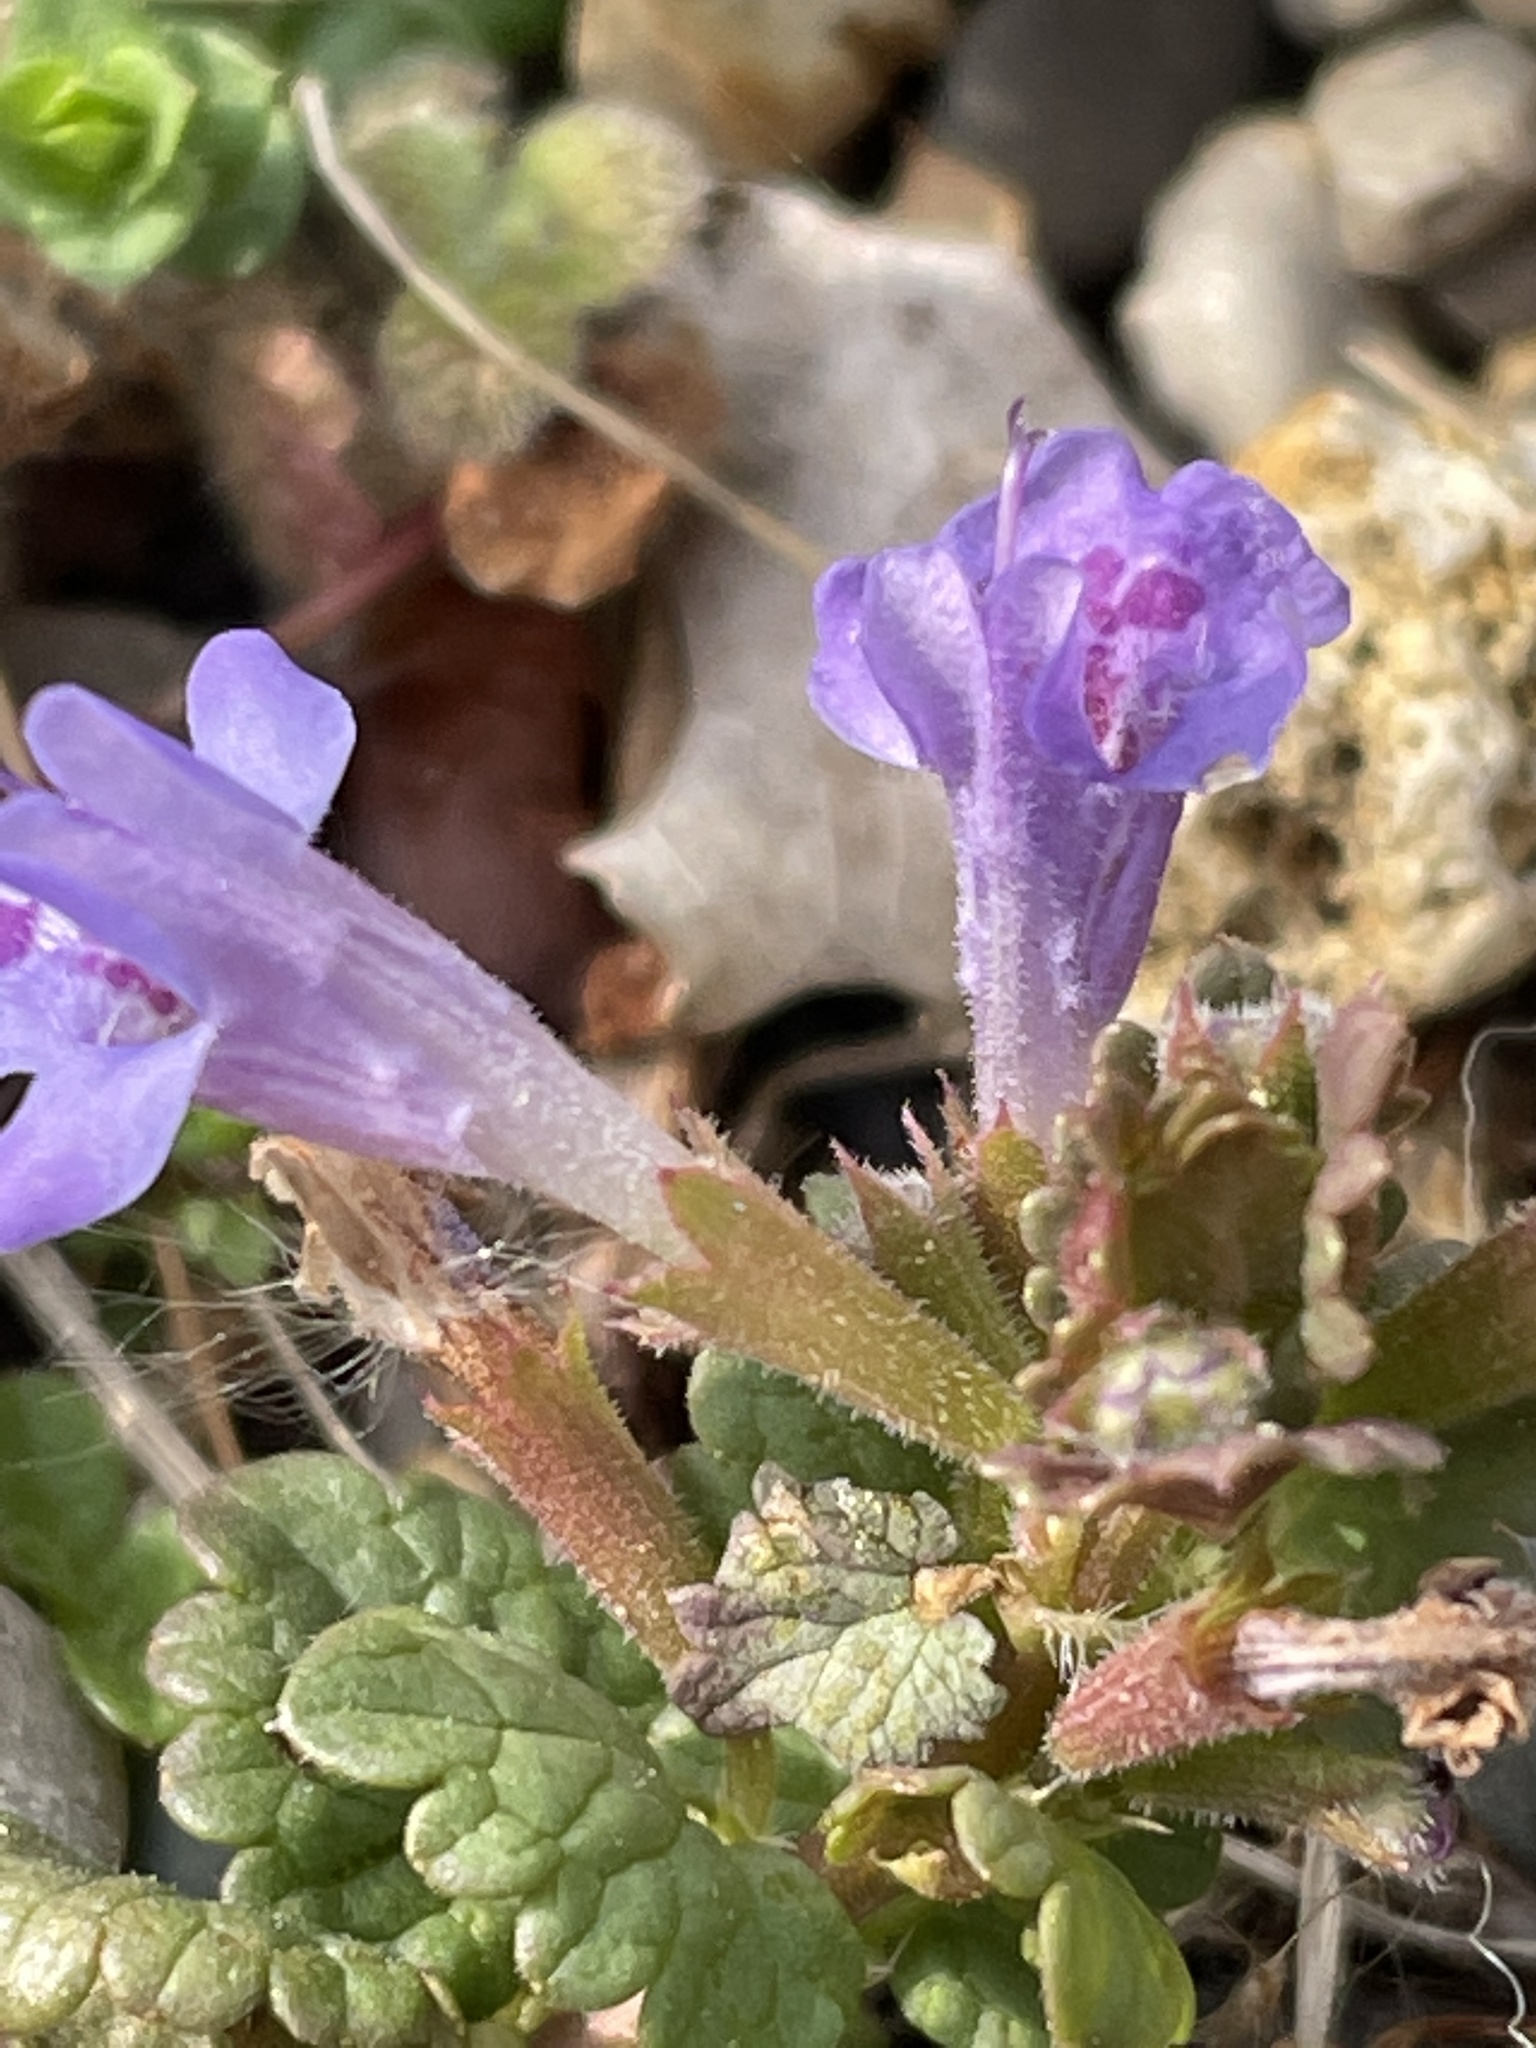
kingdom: Plantae
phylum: Tracheophyta
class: Magnoliopsida
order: Lamiales
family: Lamiaceae
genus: Glechoma
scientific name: Glechoma hederacea
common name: Ground ivy
